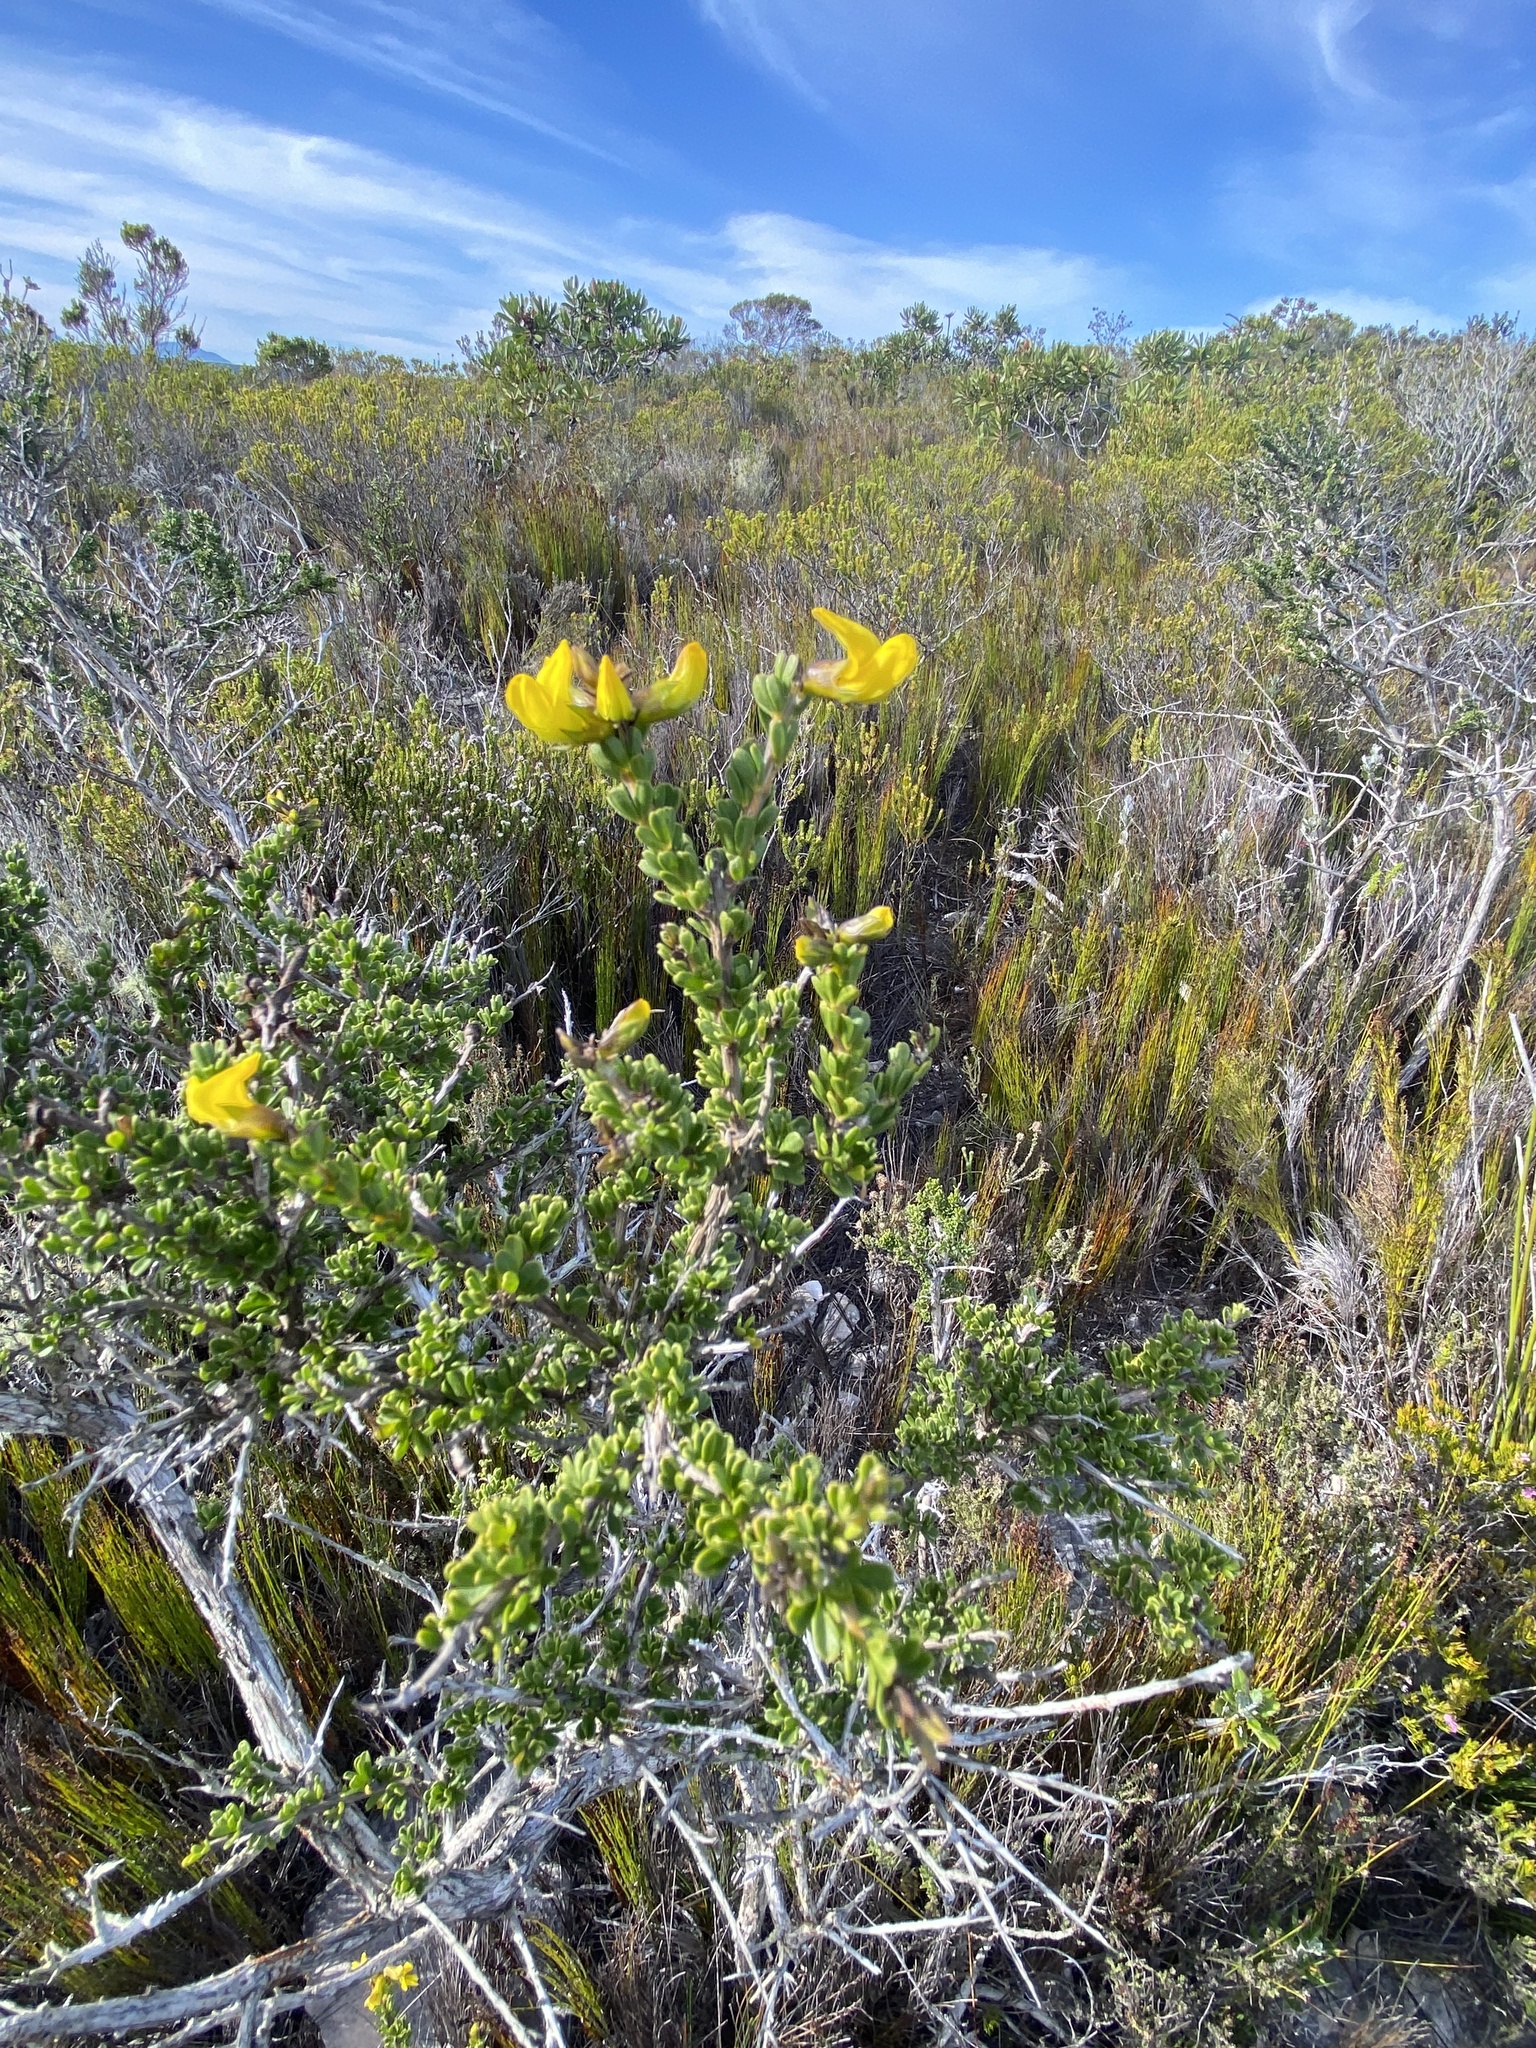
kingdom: Plantae
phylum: Tracheophyta
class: Magnoliopsida
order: Fabales
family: Fabaceae
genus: Wiborgiella
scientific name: Wiborgiella sessilifolia
